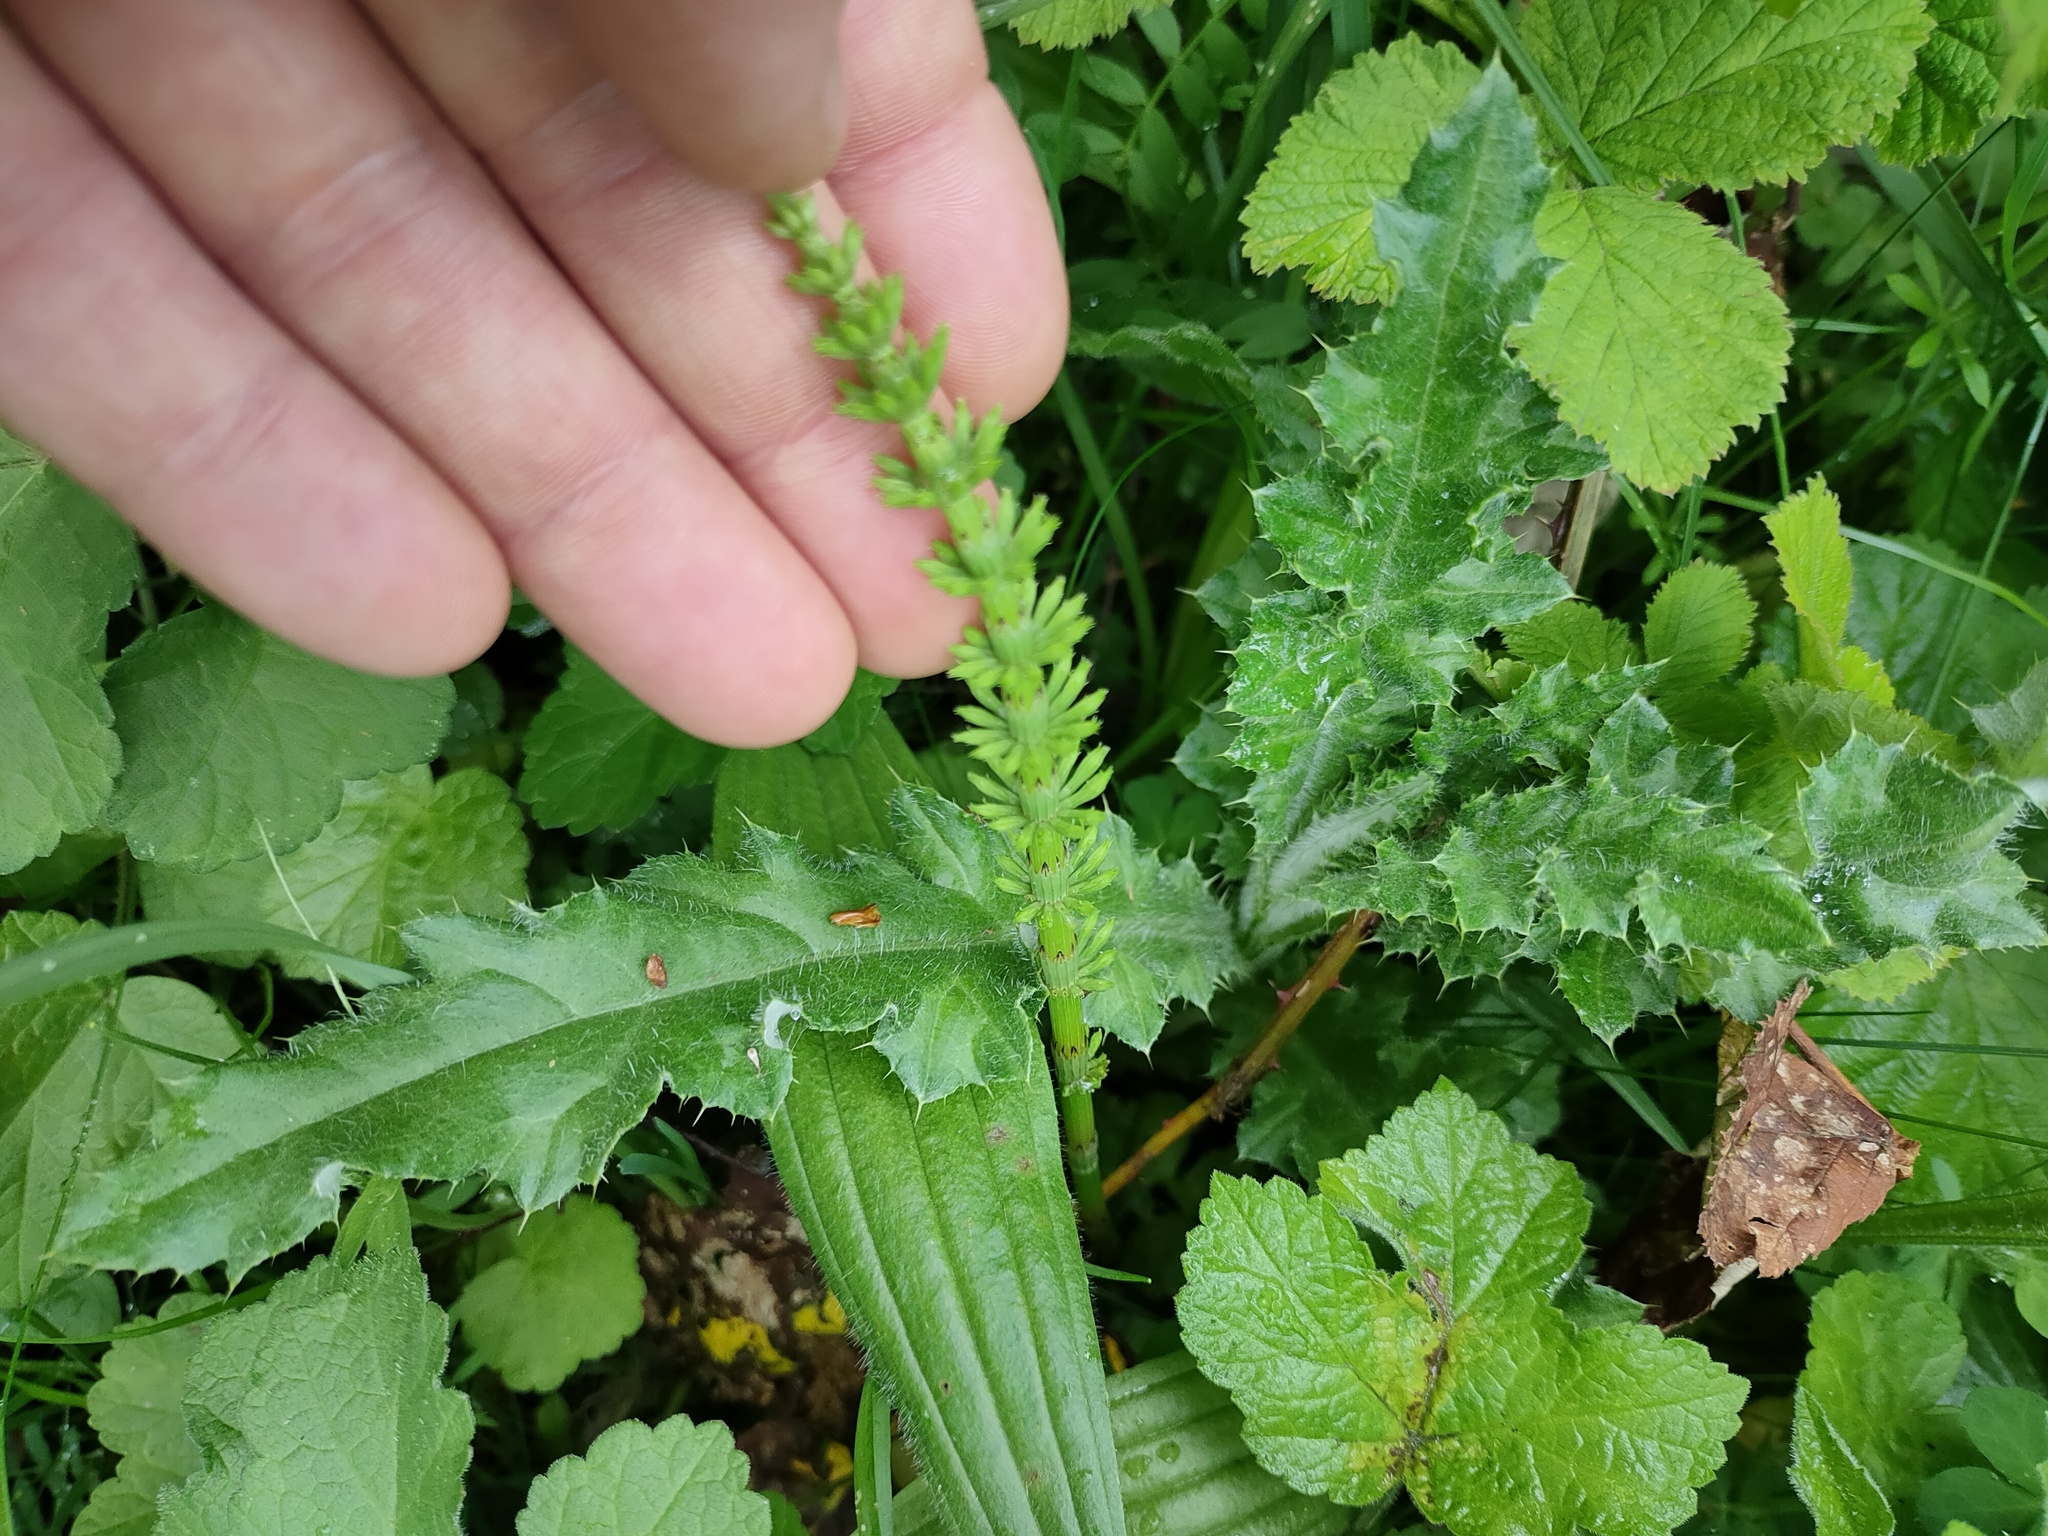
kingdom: Plantae
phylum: Tracheophyta
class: Polypodiopsida
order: Equisetales
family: Equisetaceae
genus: Equisetum
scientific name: Equisetum arvense
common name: Field horsetail
